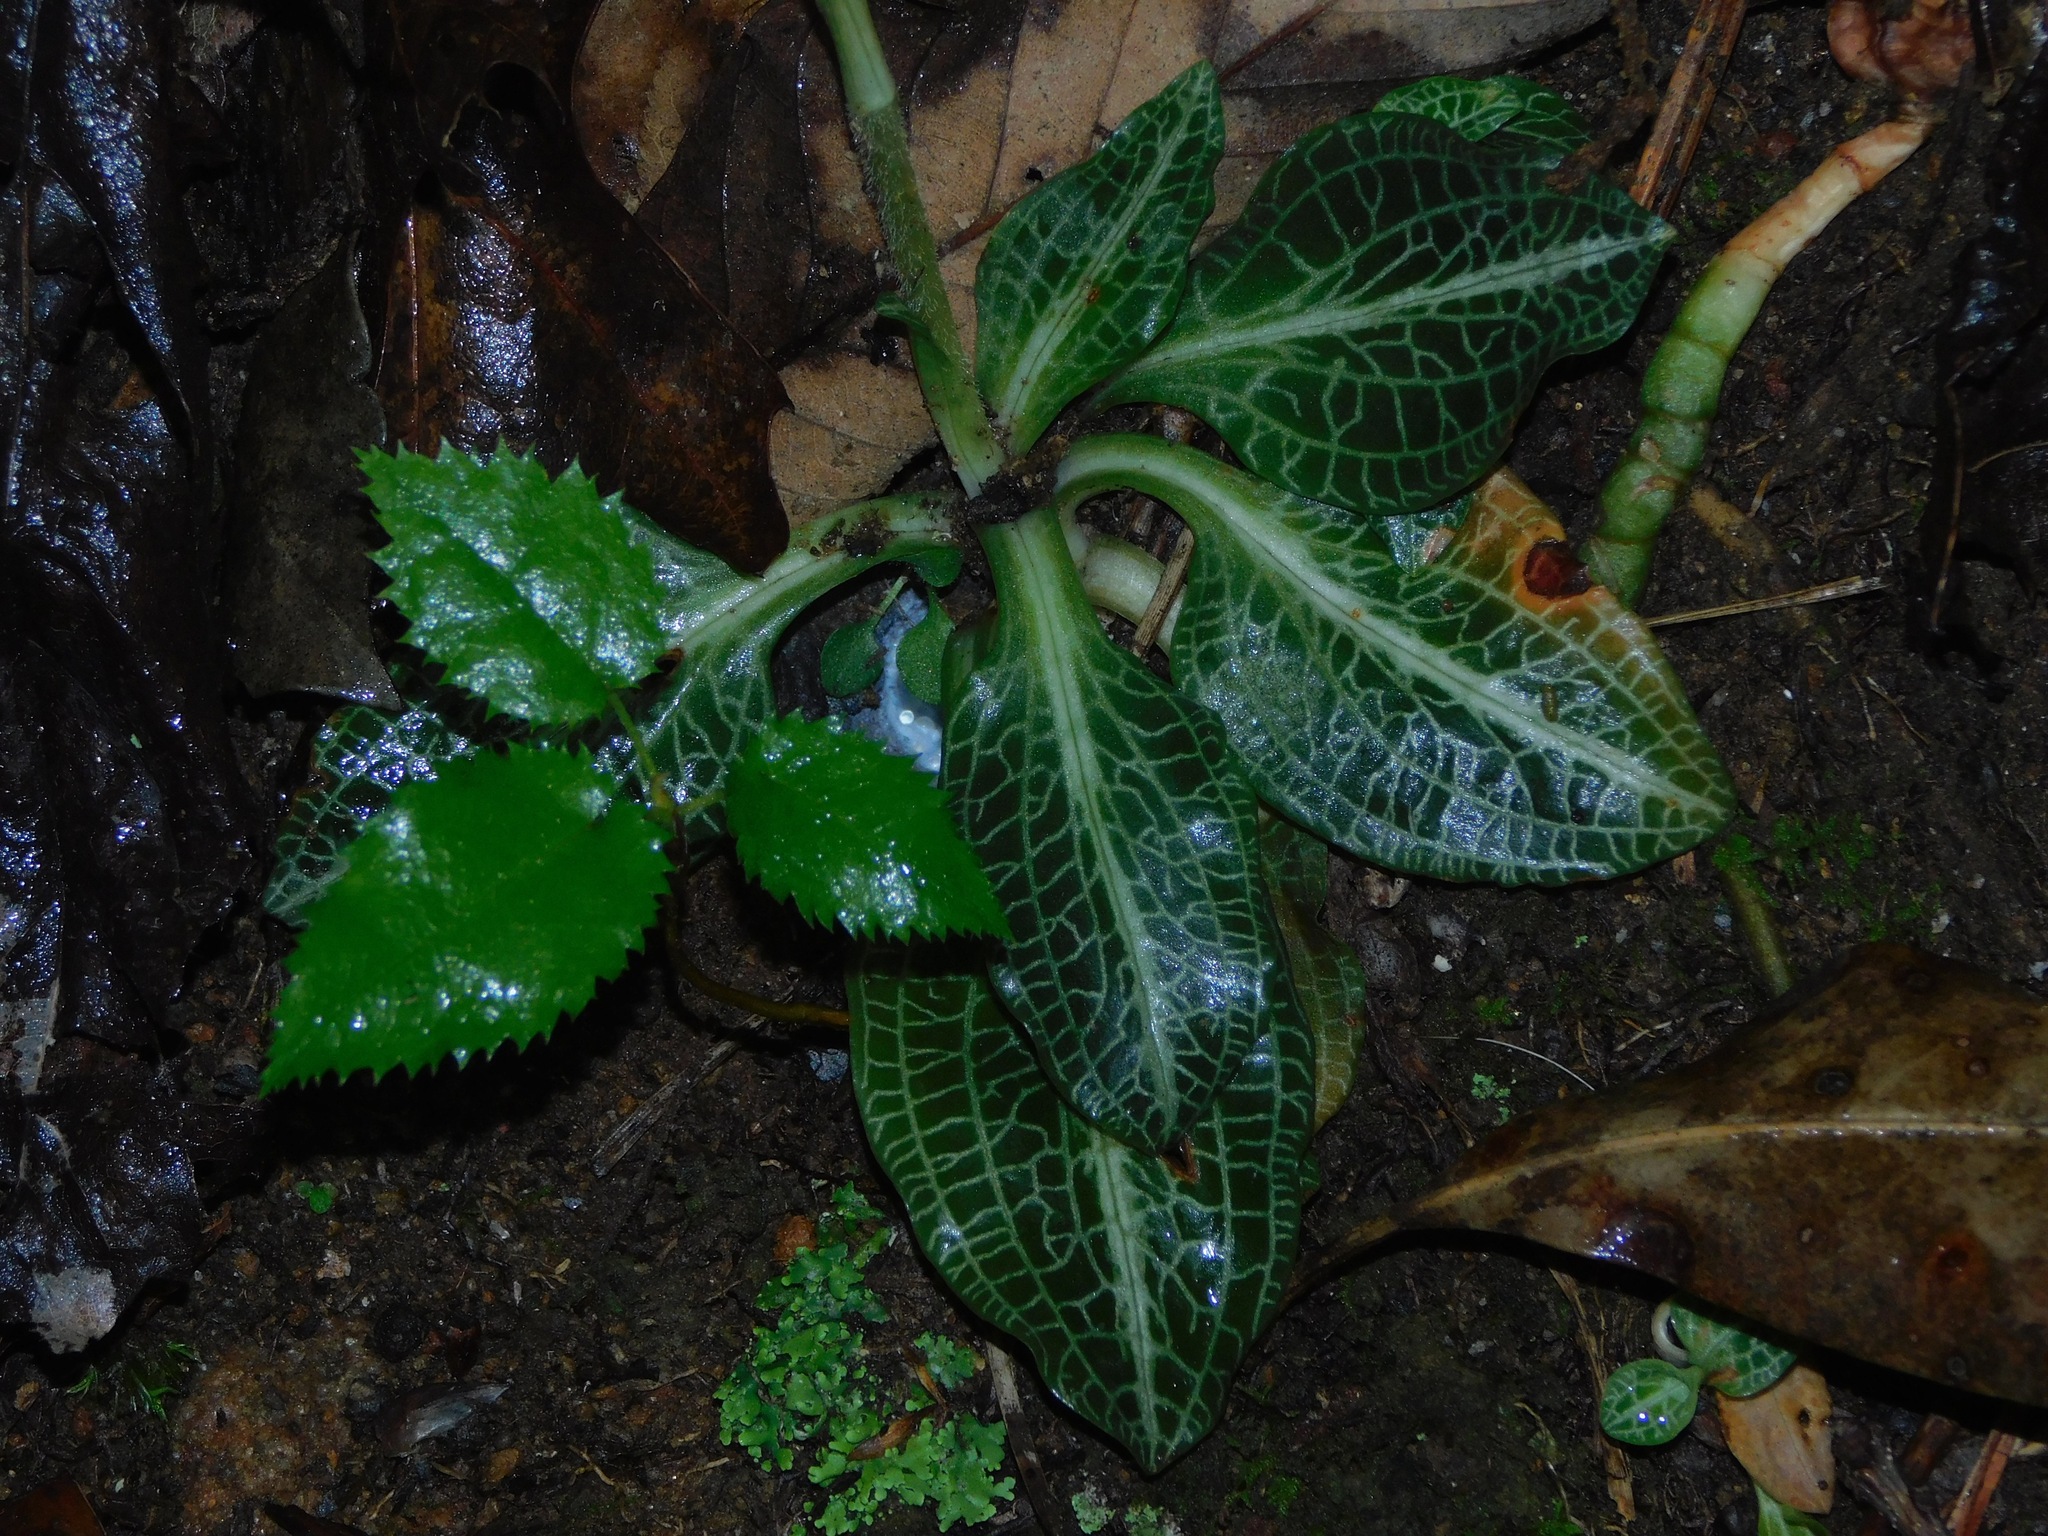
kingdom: Plantae
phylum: Tracheophyta
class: Liliopsida
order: Asparagales
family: Orchidaceae
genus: Goodyera
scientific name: Goodyera pubescens
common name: Downy rattlesnake-plantain
